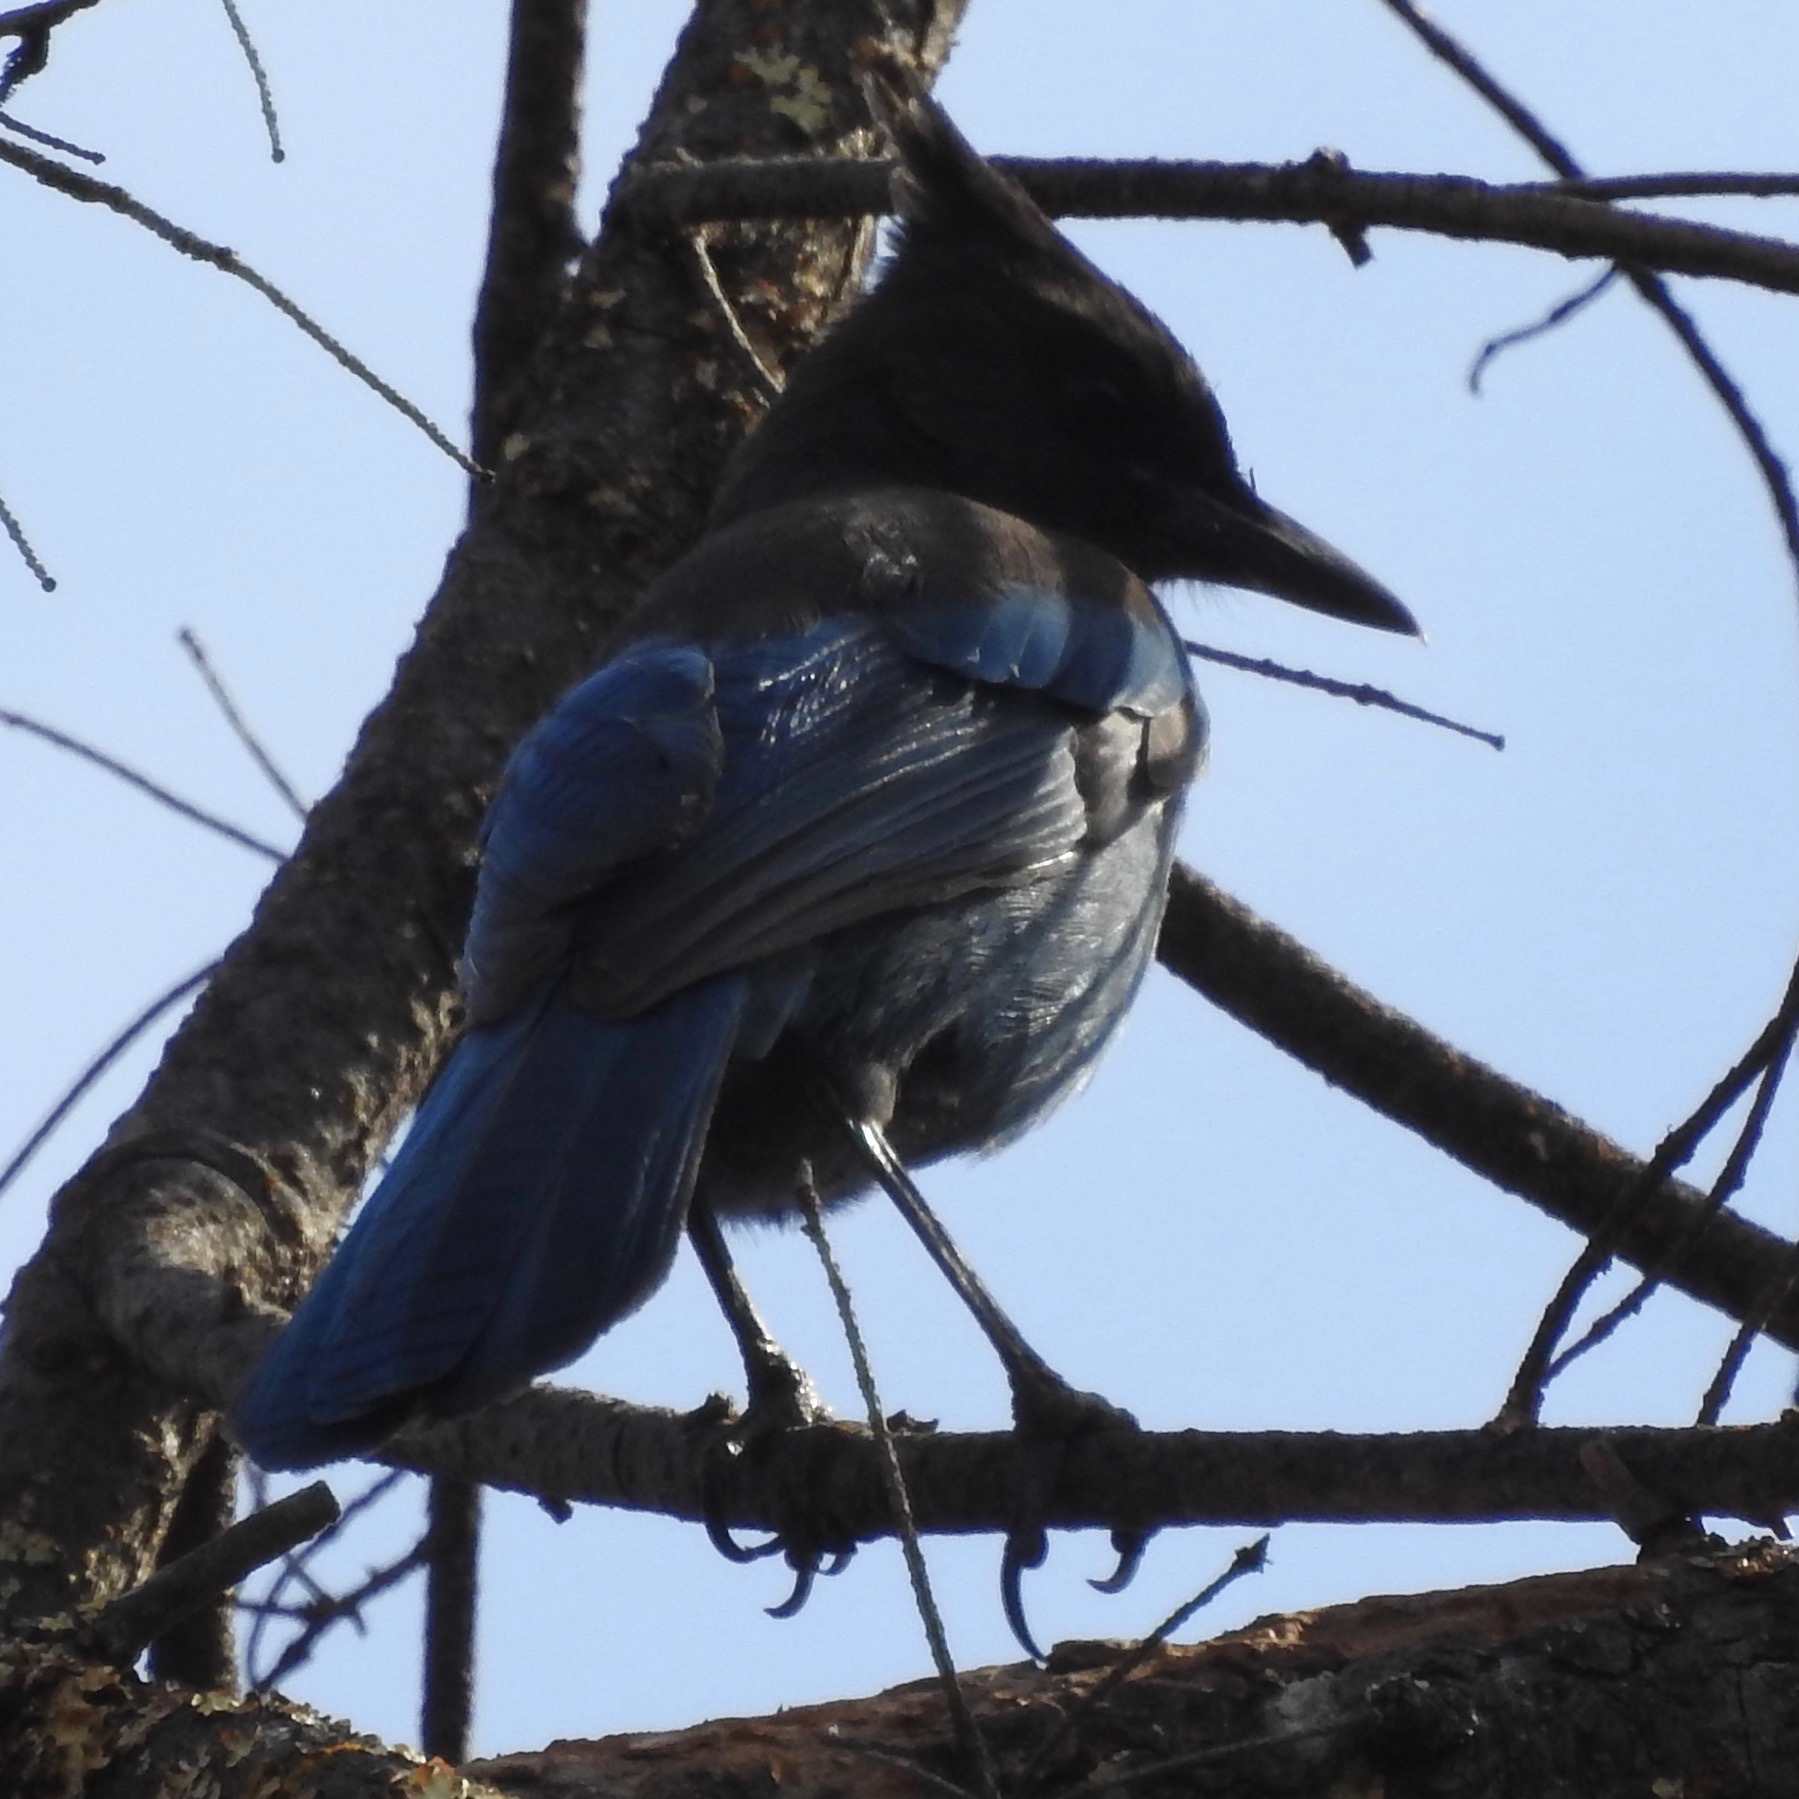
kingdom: Animalia
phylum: Chordata
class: Aves
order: Passeriformes
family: Corvidae
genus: Cyanocitta
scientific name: Cyanocitta stelleri
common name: Steller's jay
